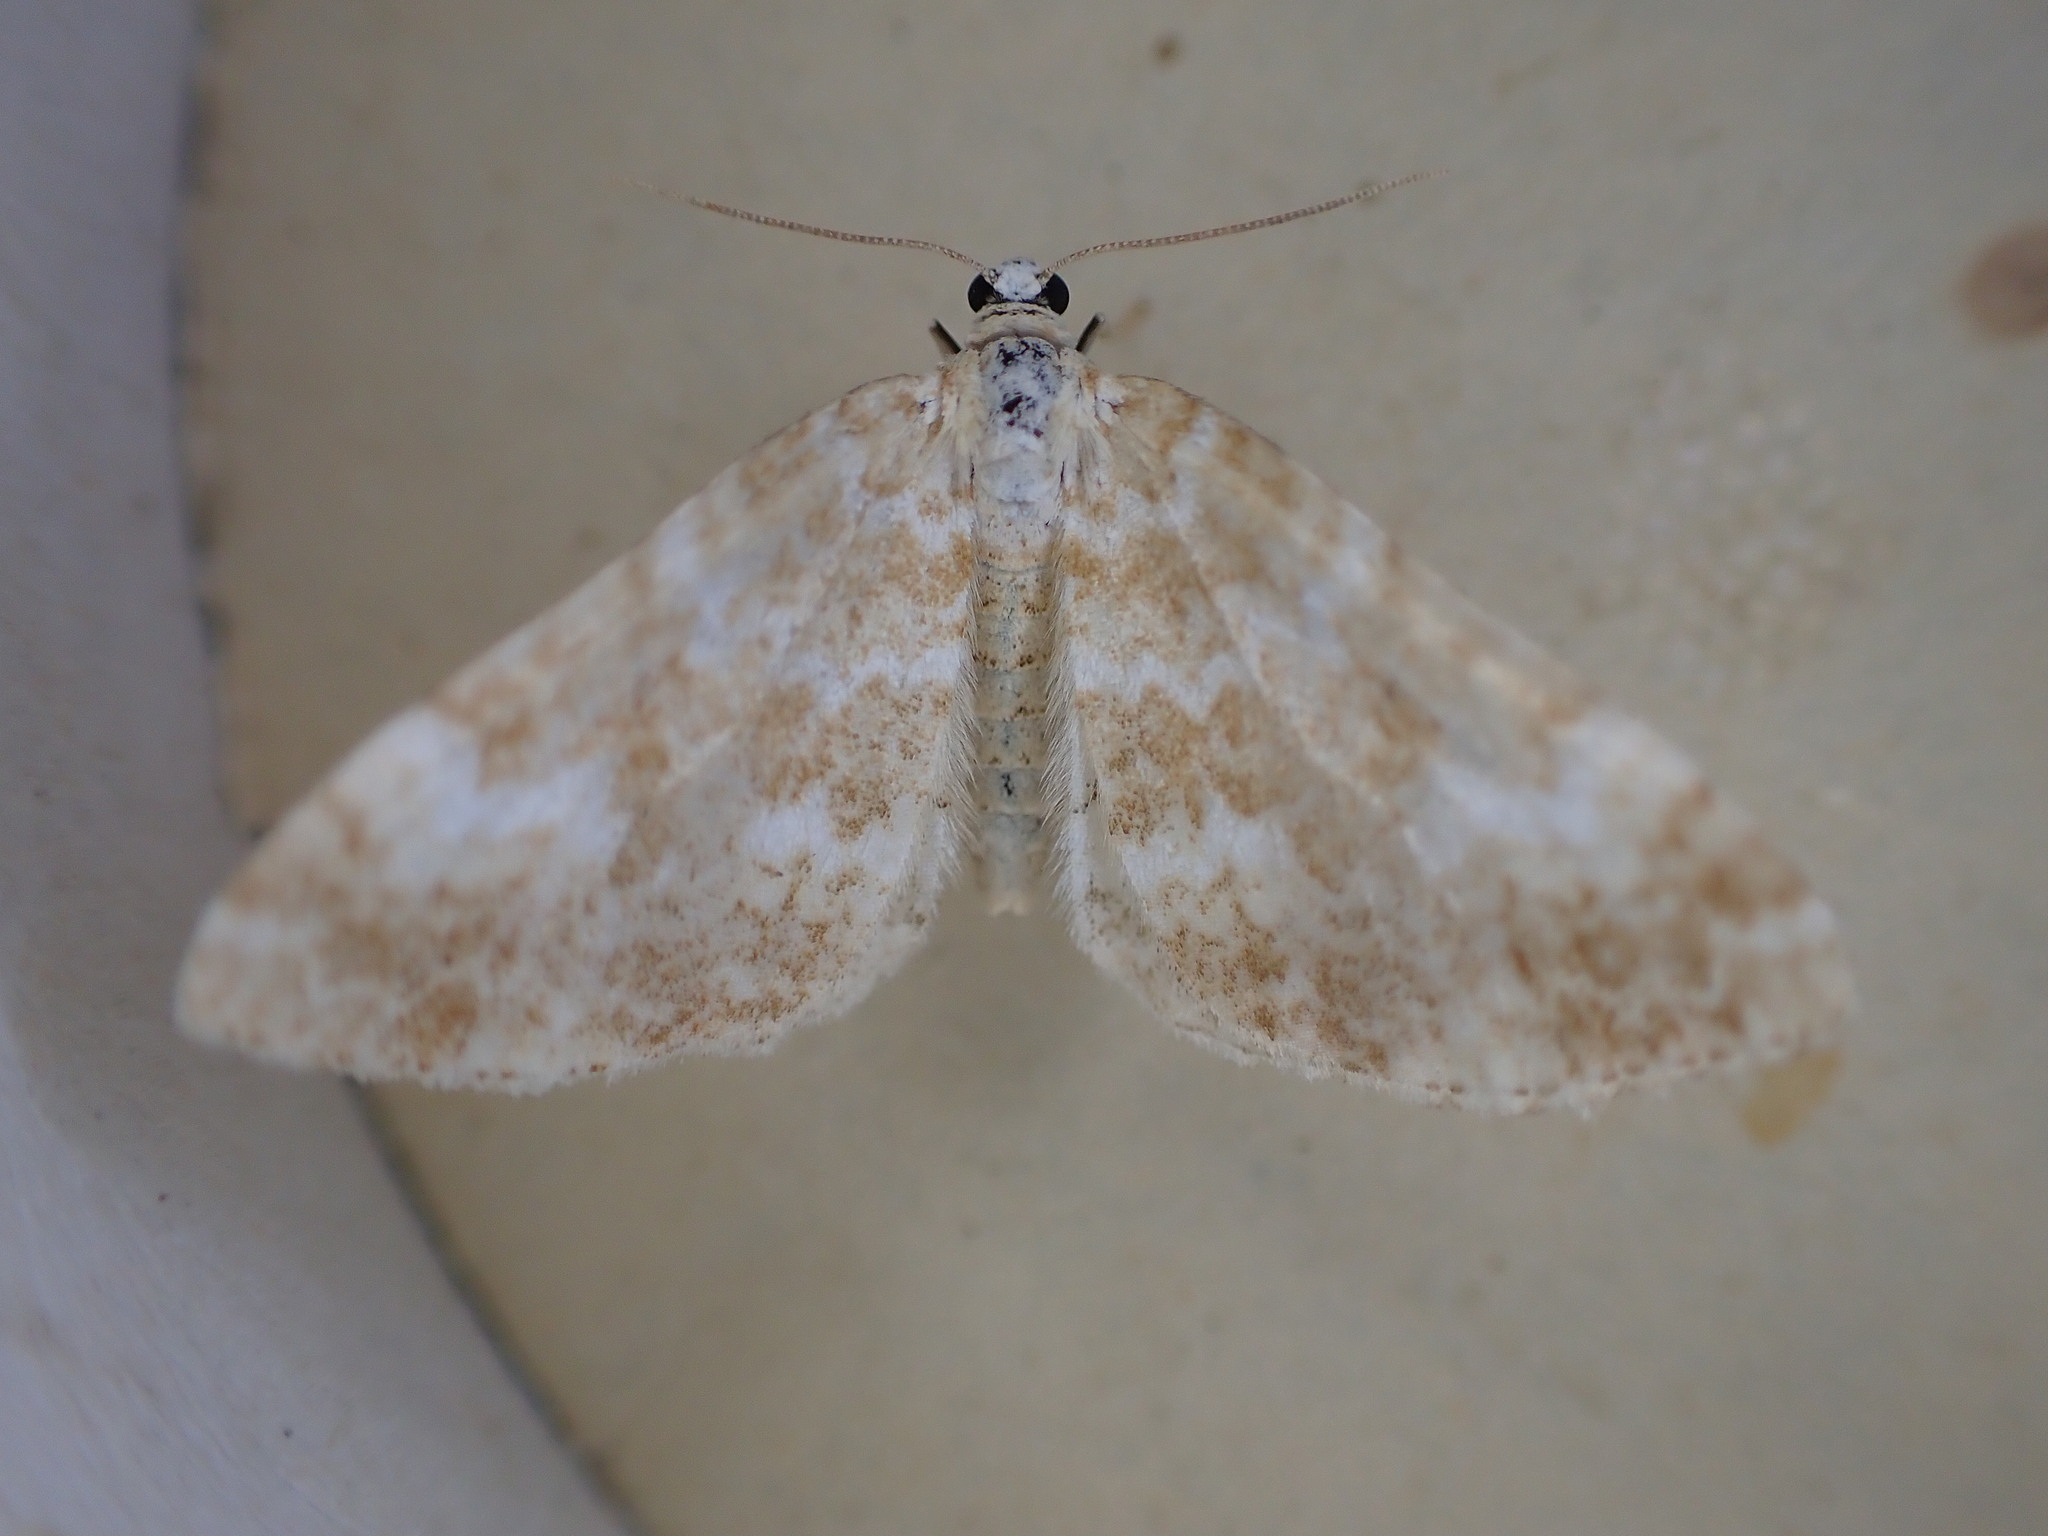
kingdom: Animalia
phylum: Arthropoda
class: Insecta
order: Lepidoptera
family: Geometridae
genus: Perizoma
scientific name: Perizoma flavofasciata
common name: Sandy carpet
